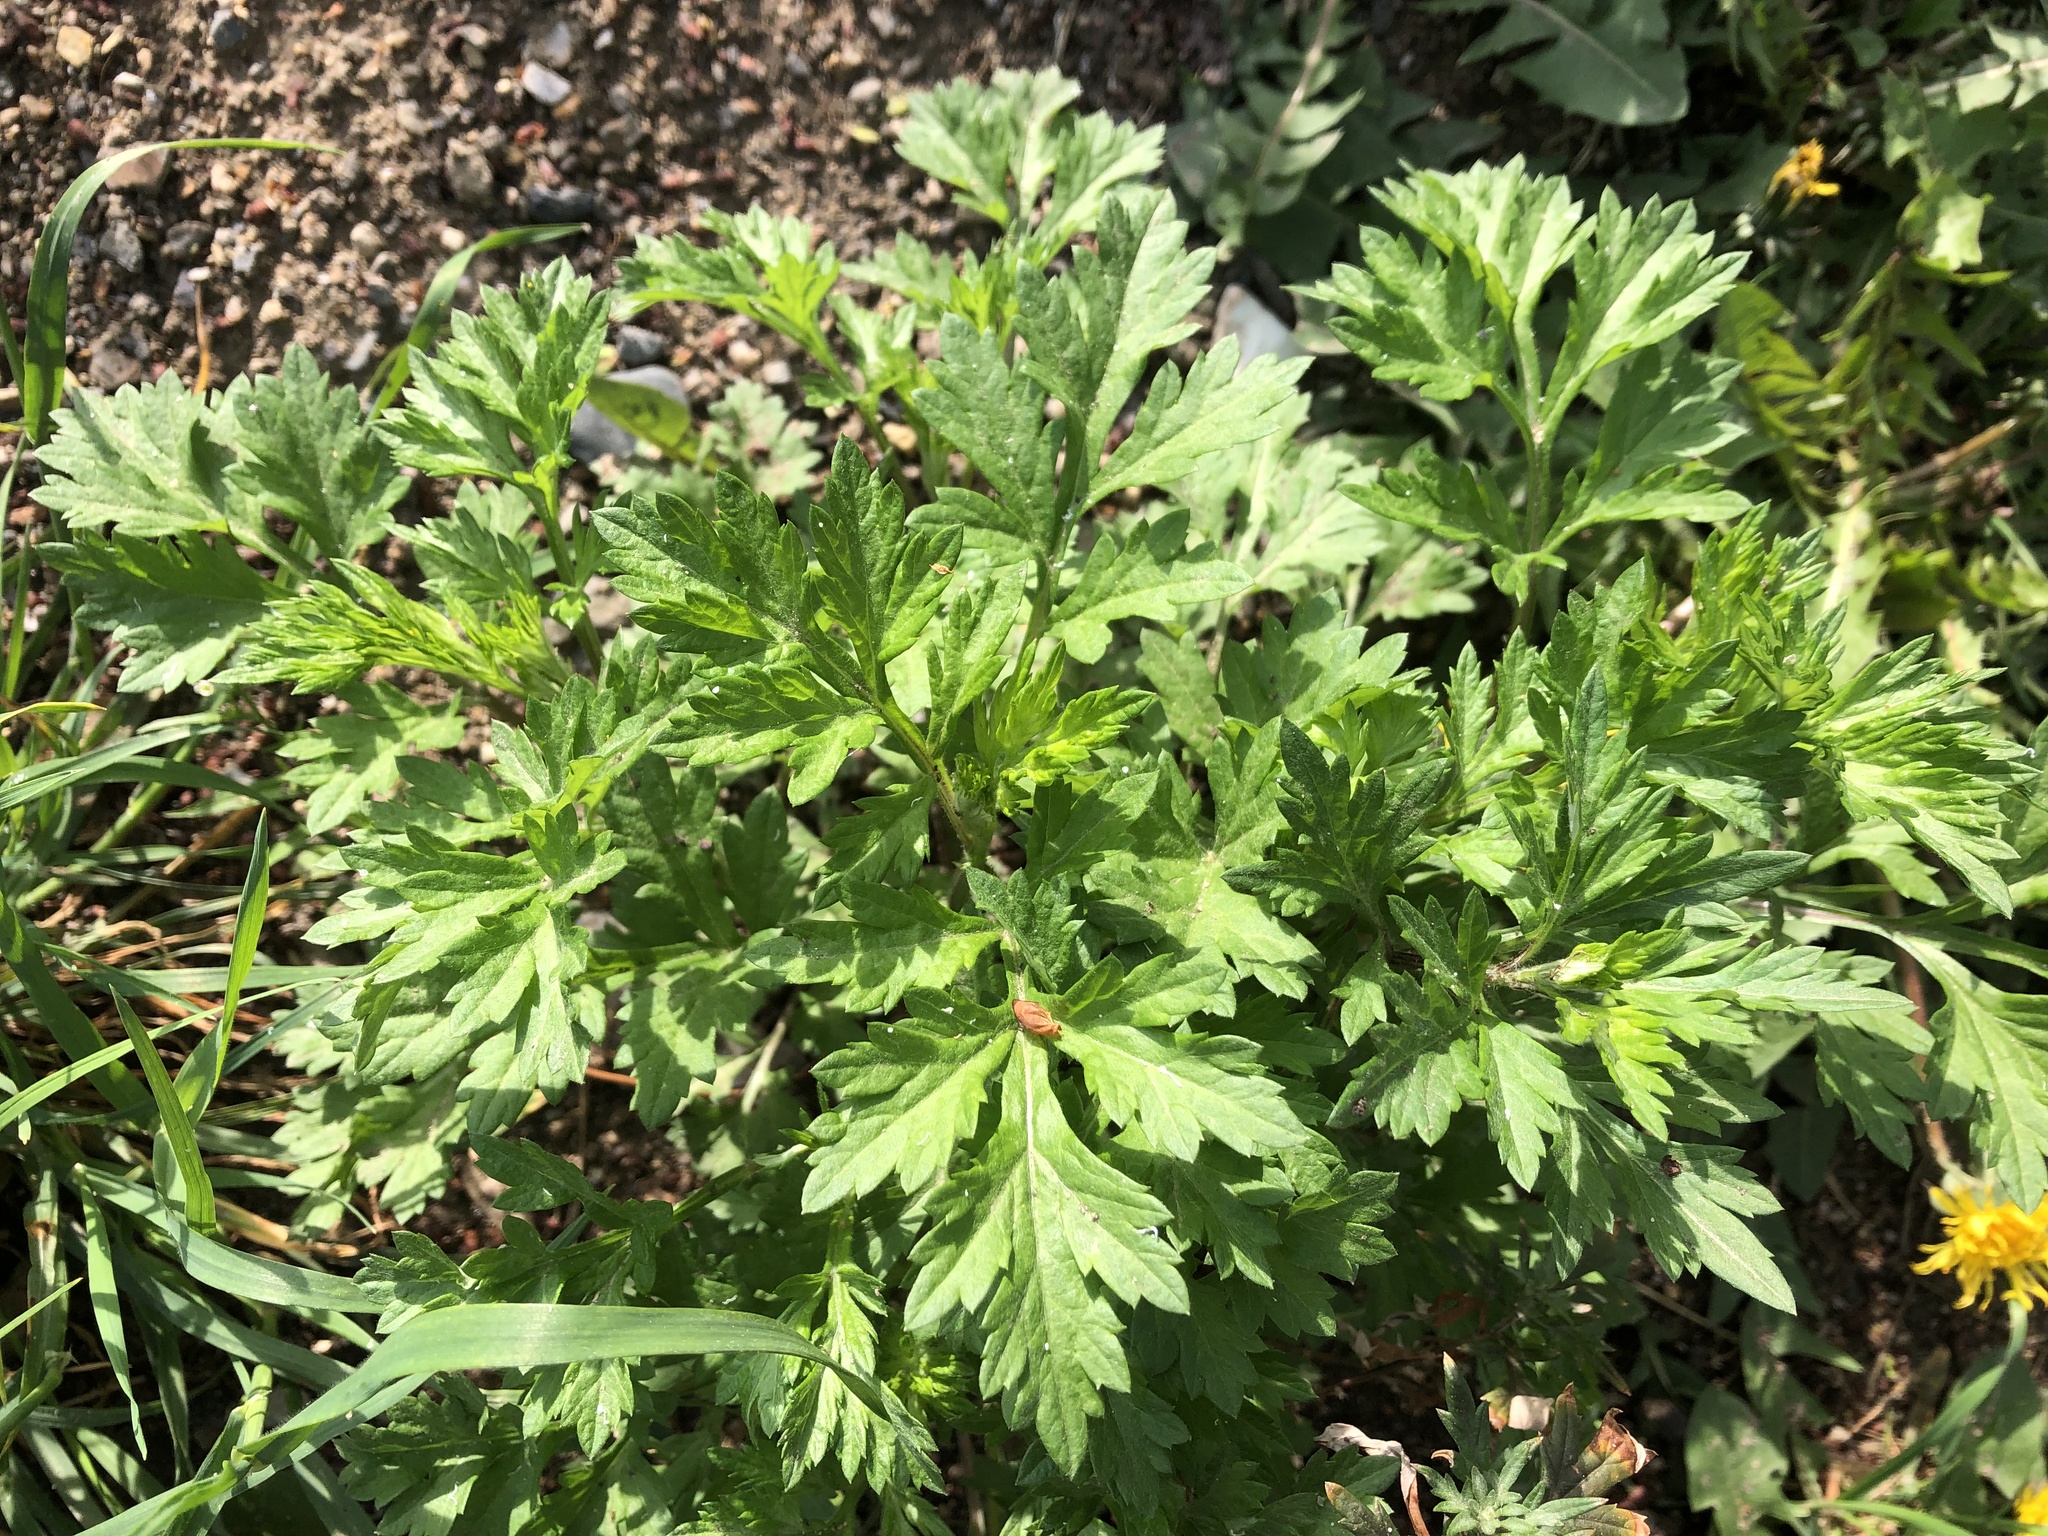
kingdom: Plantae
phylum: Tracheophyta
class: Magnoliopsida
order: Asterales
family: Asteraceae
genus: Artemisia
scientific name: Artemisia vulgaris
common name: Mugwort
